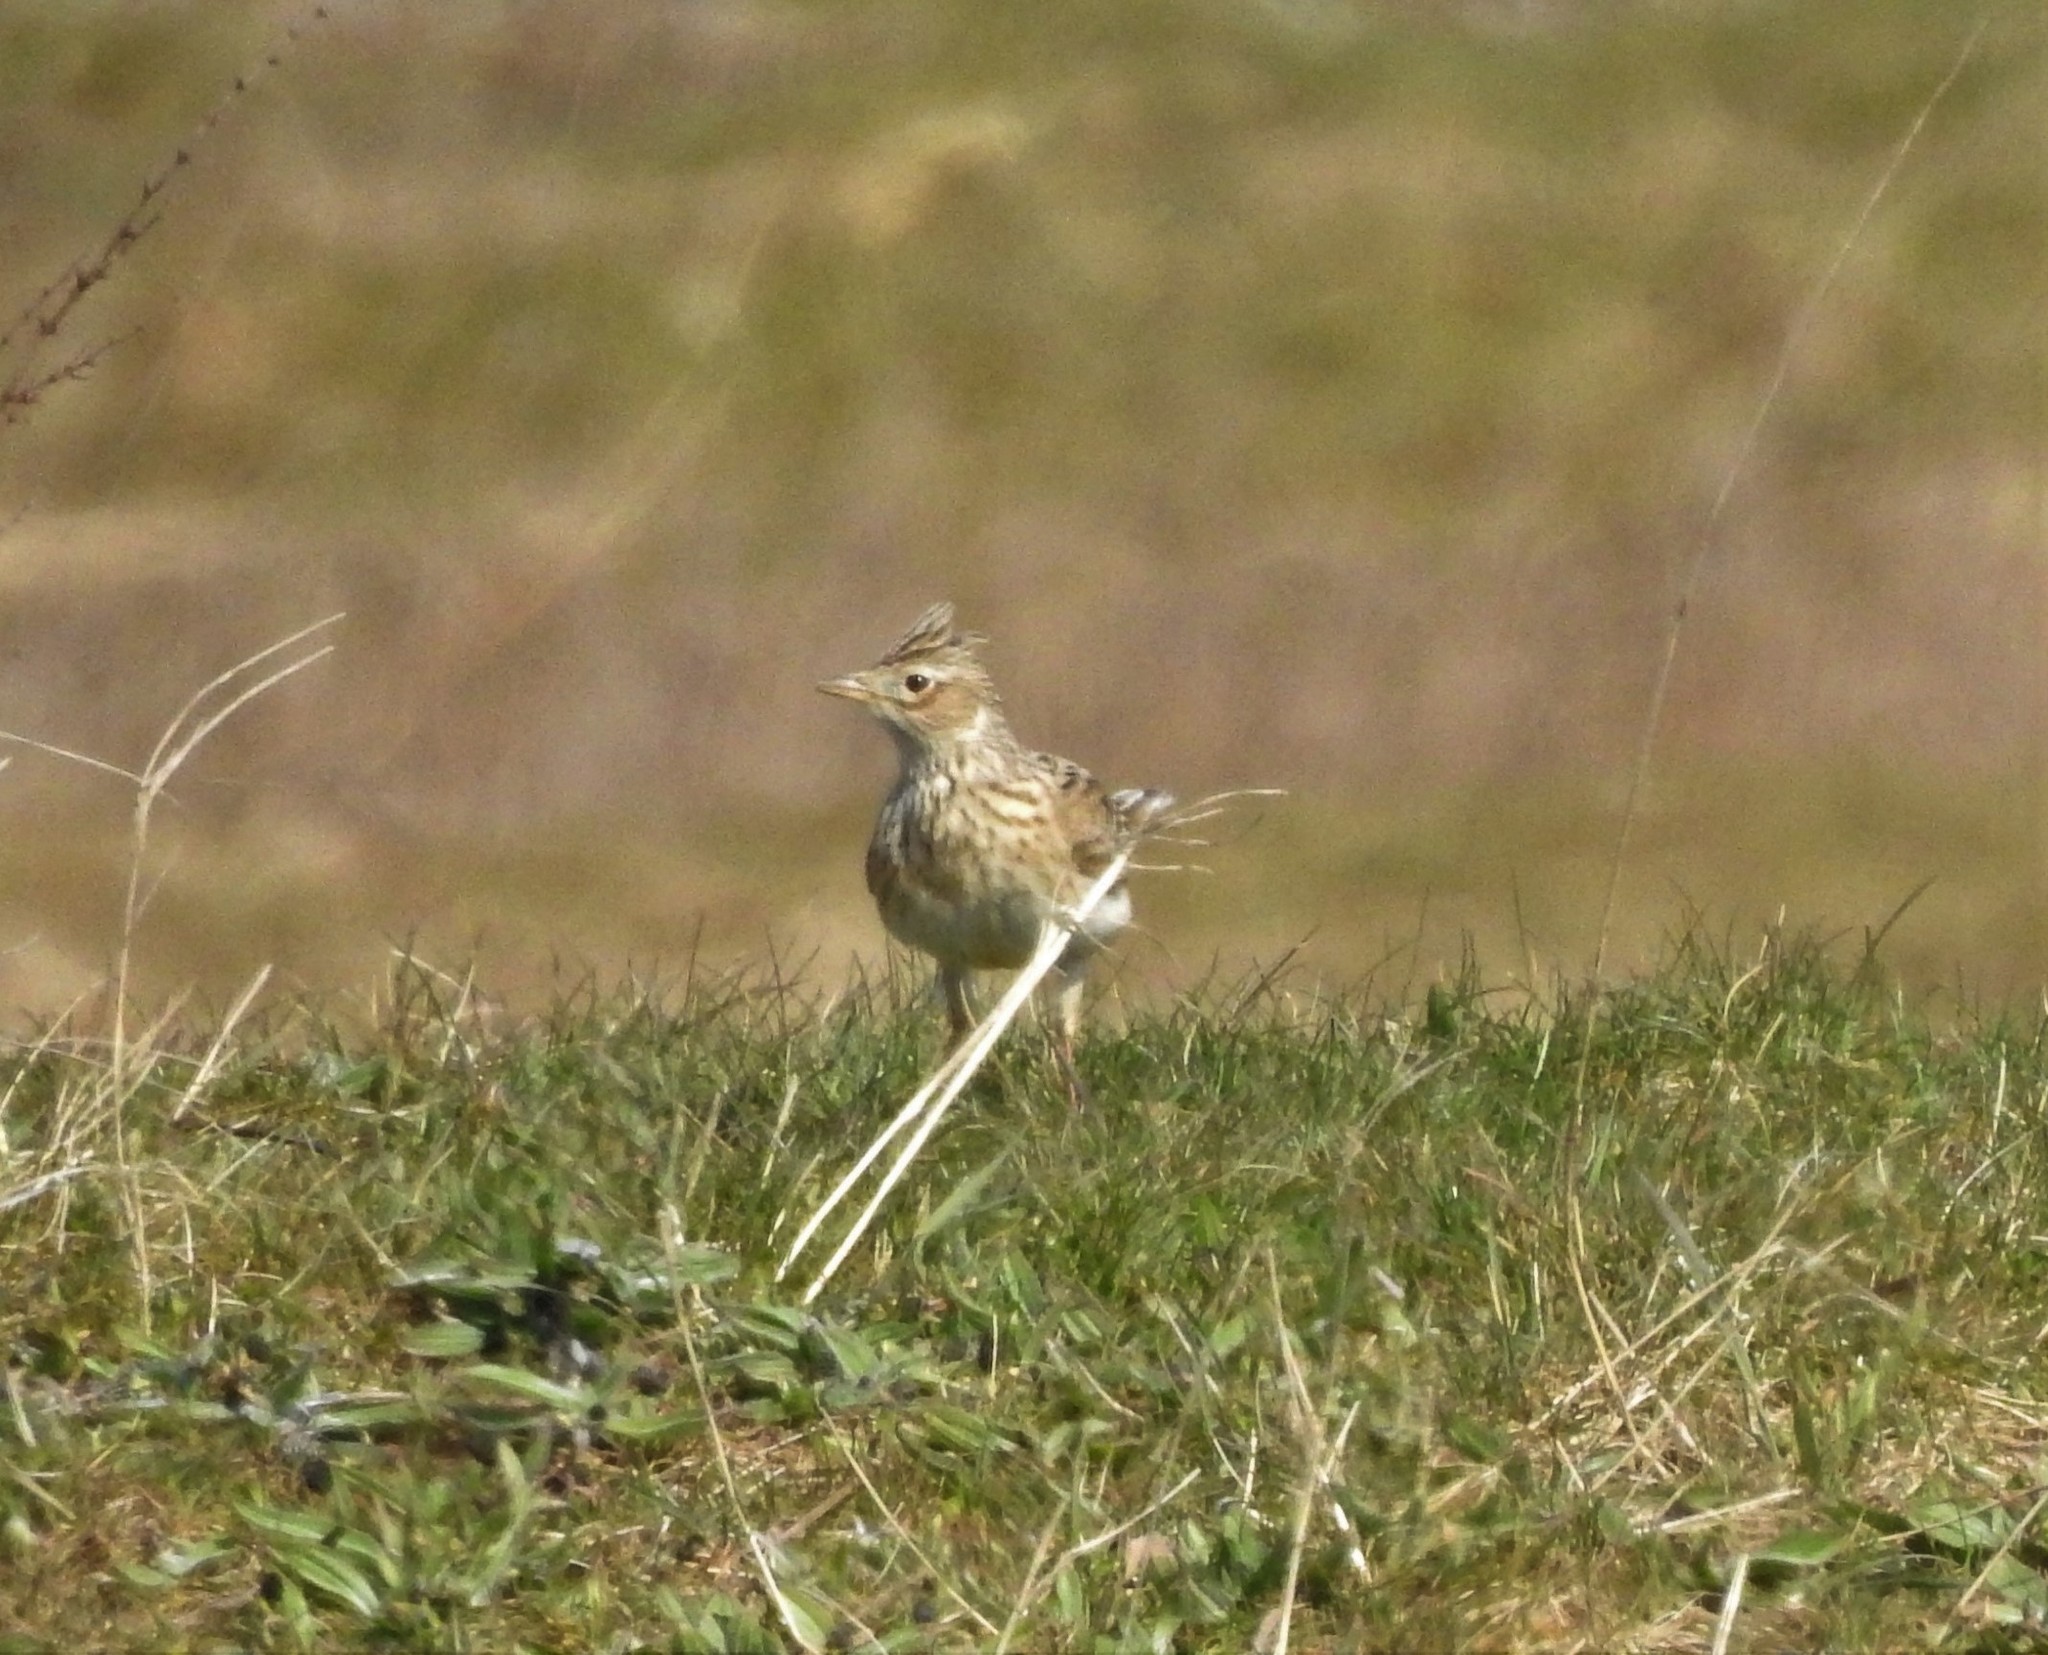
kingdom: Animalia
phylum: Chordata
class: Aves
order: Passeriformes
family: Alaudidae
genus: Alauda
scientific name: Alauda arvensis
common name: Eurasian skylark
